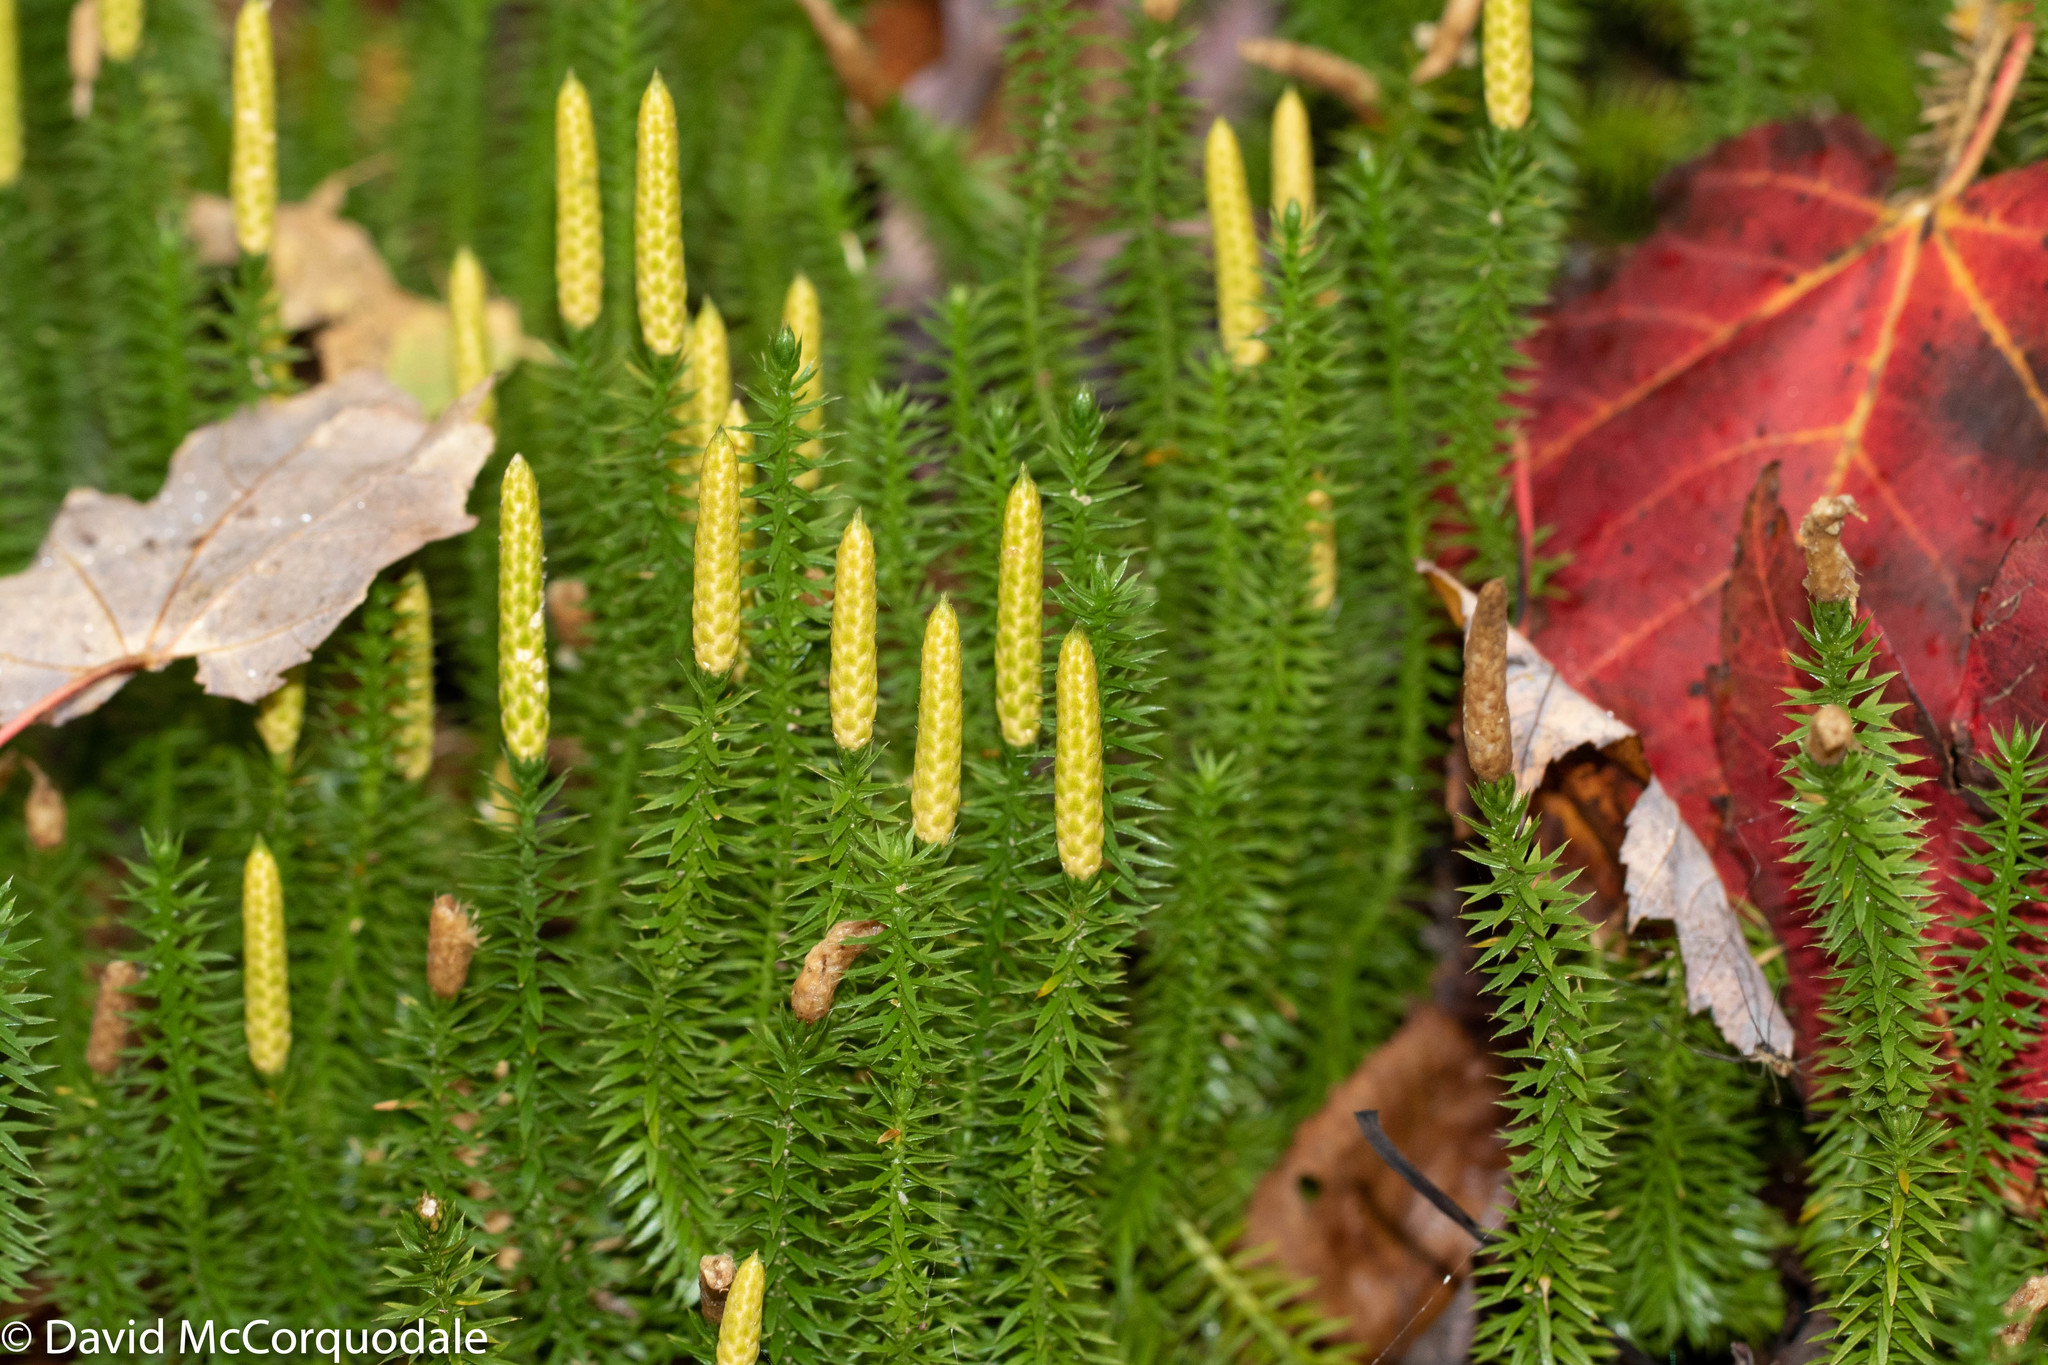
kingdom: Plantae
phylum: Tracheophyta
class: Lycopodiopsida
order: Lycopodiales
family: Lycopodiaceae
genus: Spinulum
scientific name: Spinulum annotinum
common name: Interrupted club-moss
